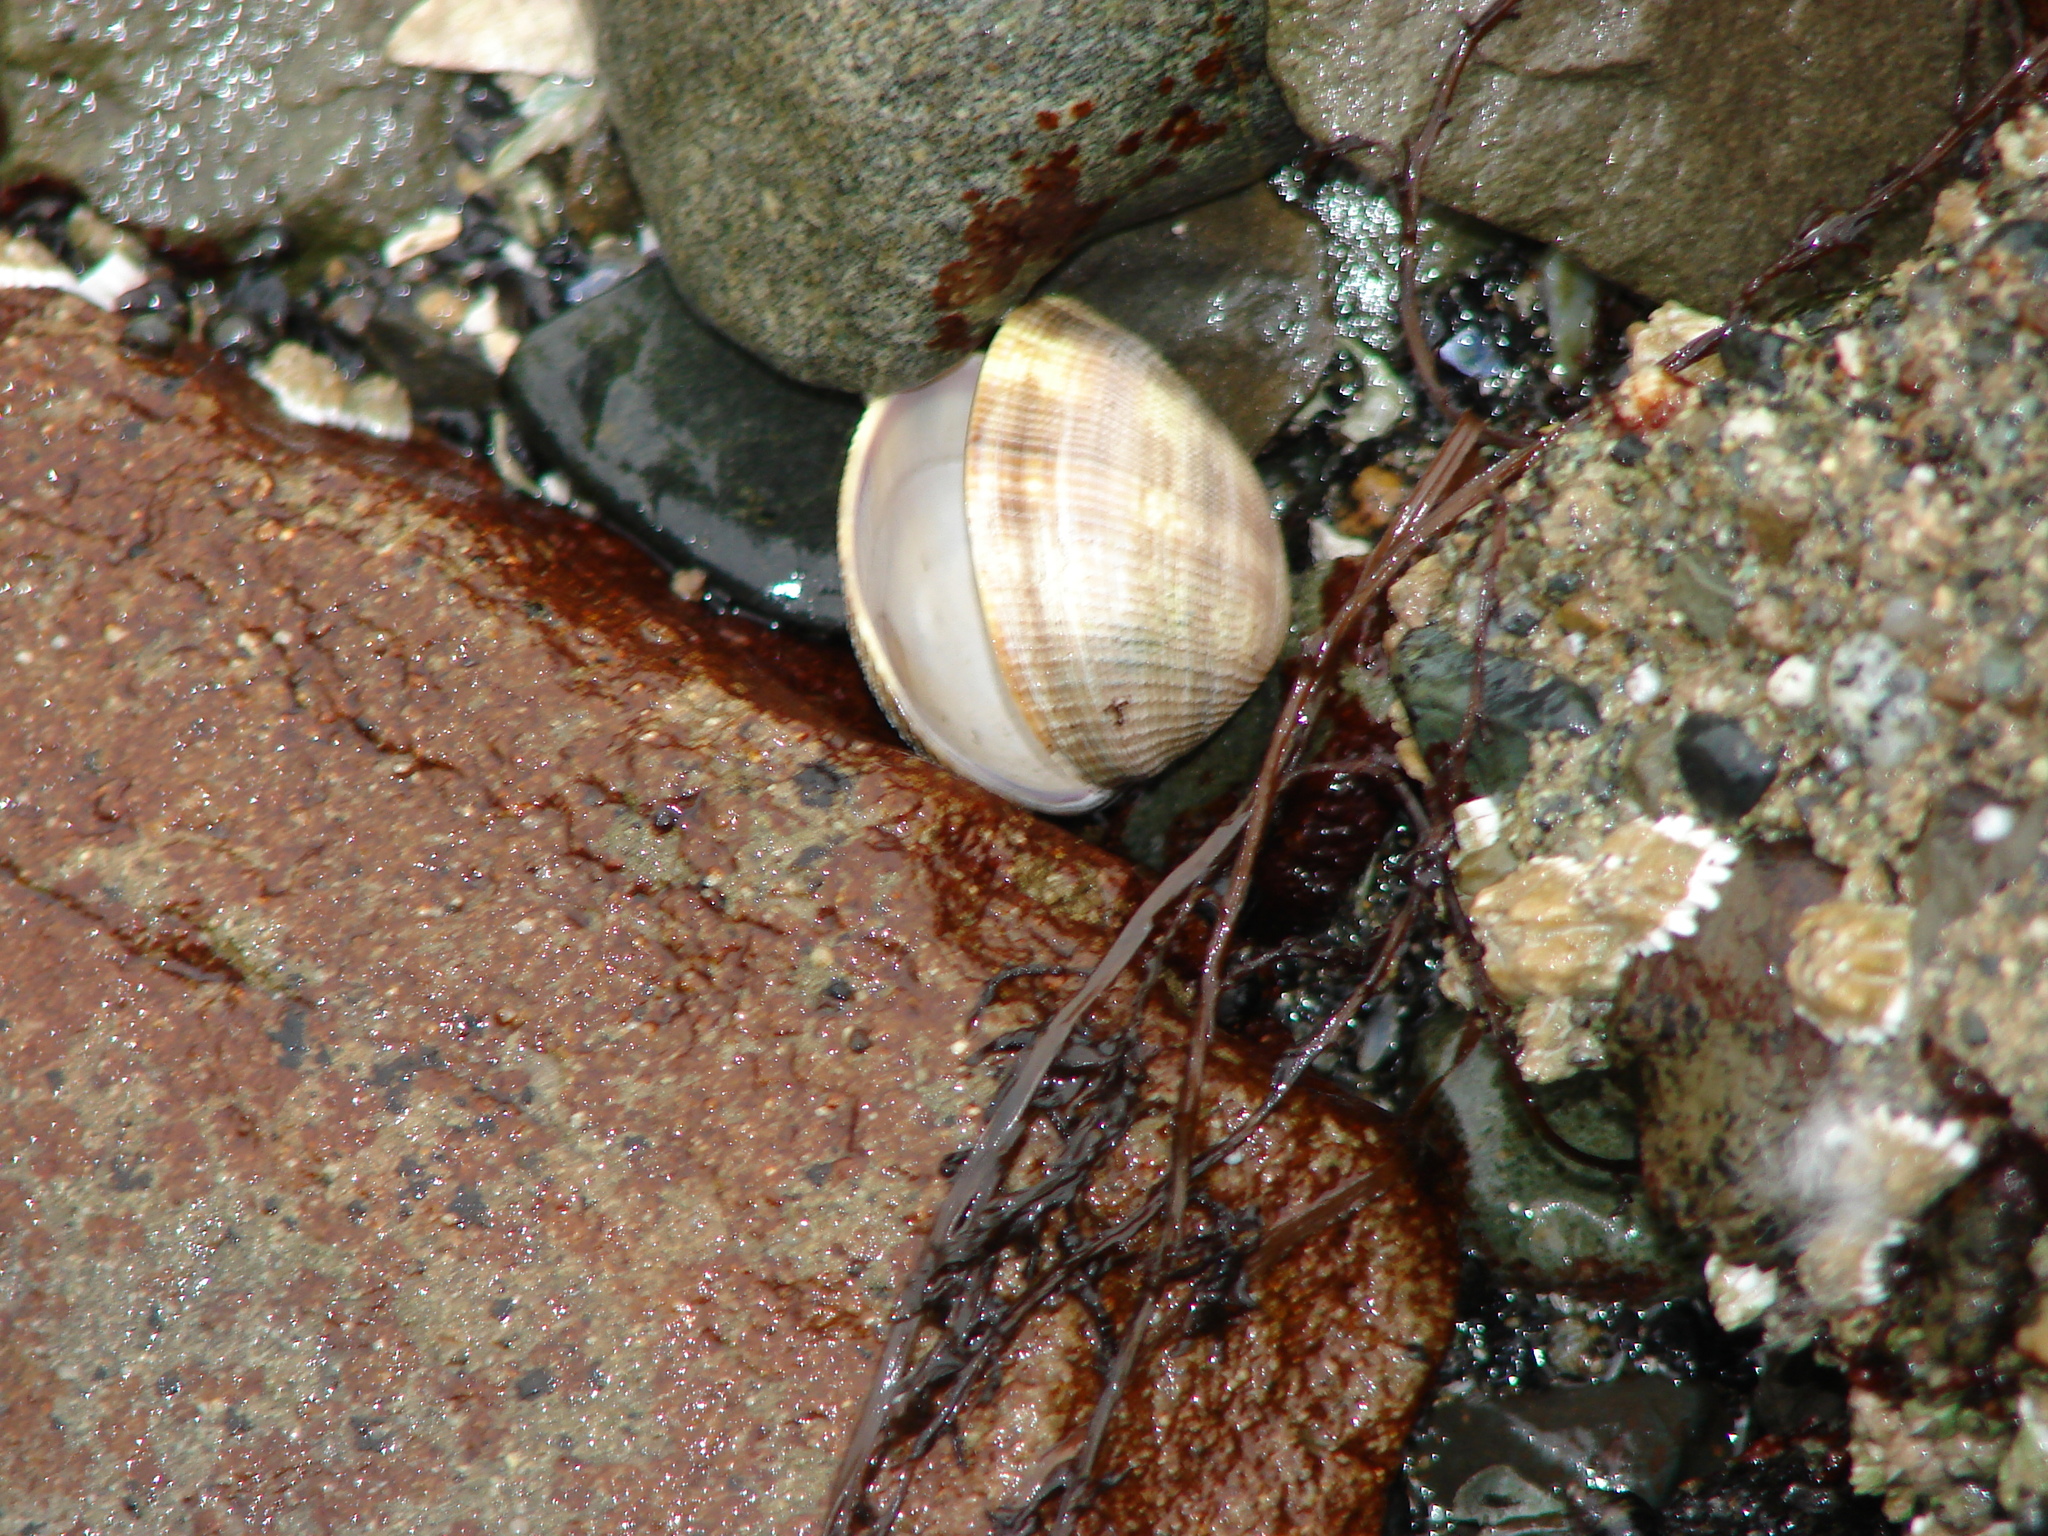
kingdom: Animalia
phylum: Mollusca
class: Bivalvia
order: Venerida
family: Veneridae
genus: Ruditapes
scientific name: Ruditapes philippinarum
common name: Manila clam
